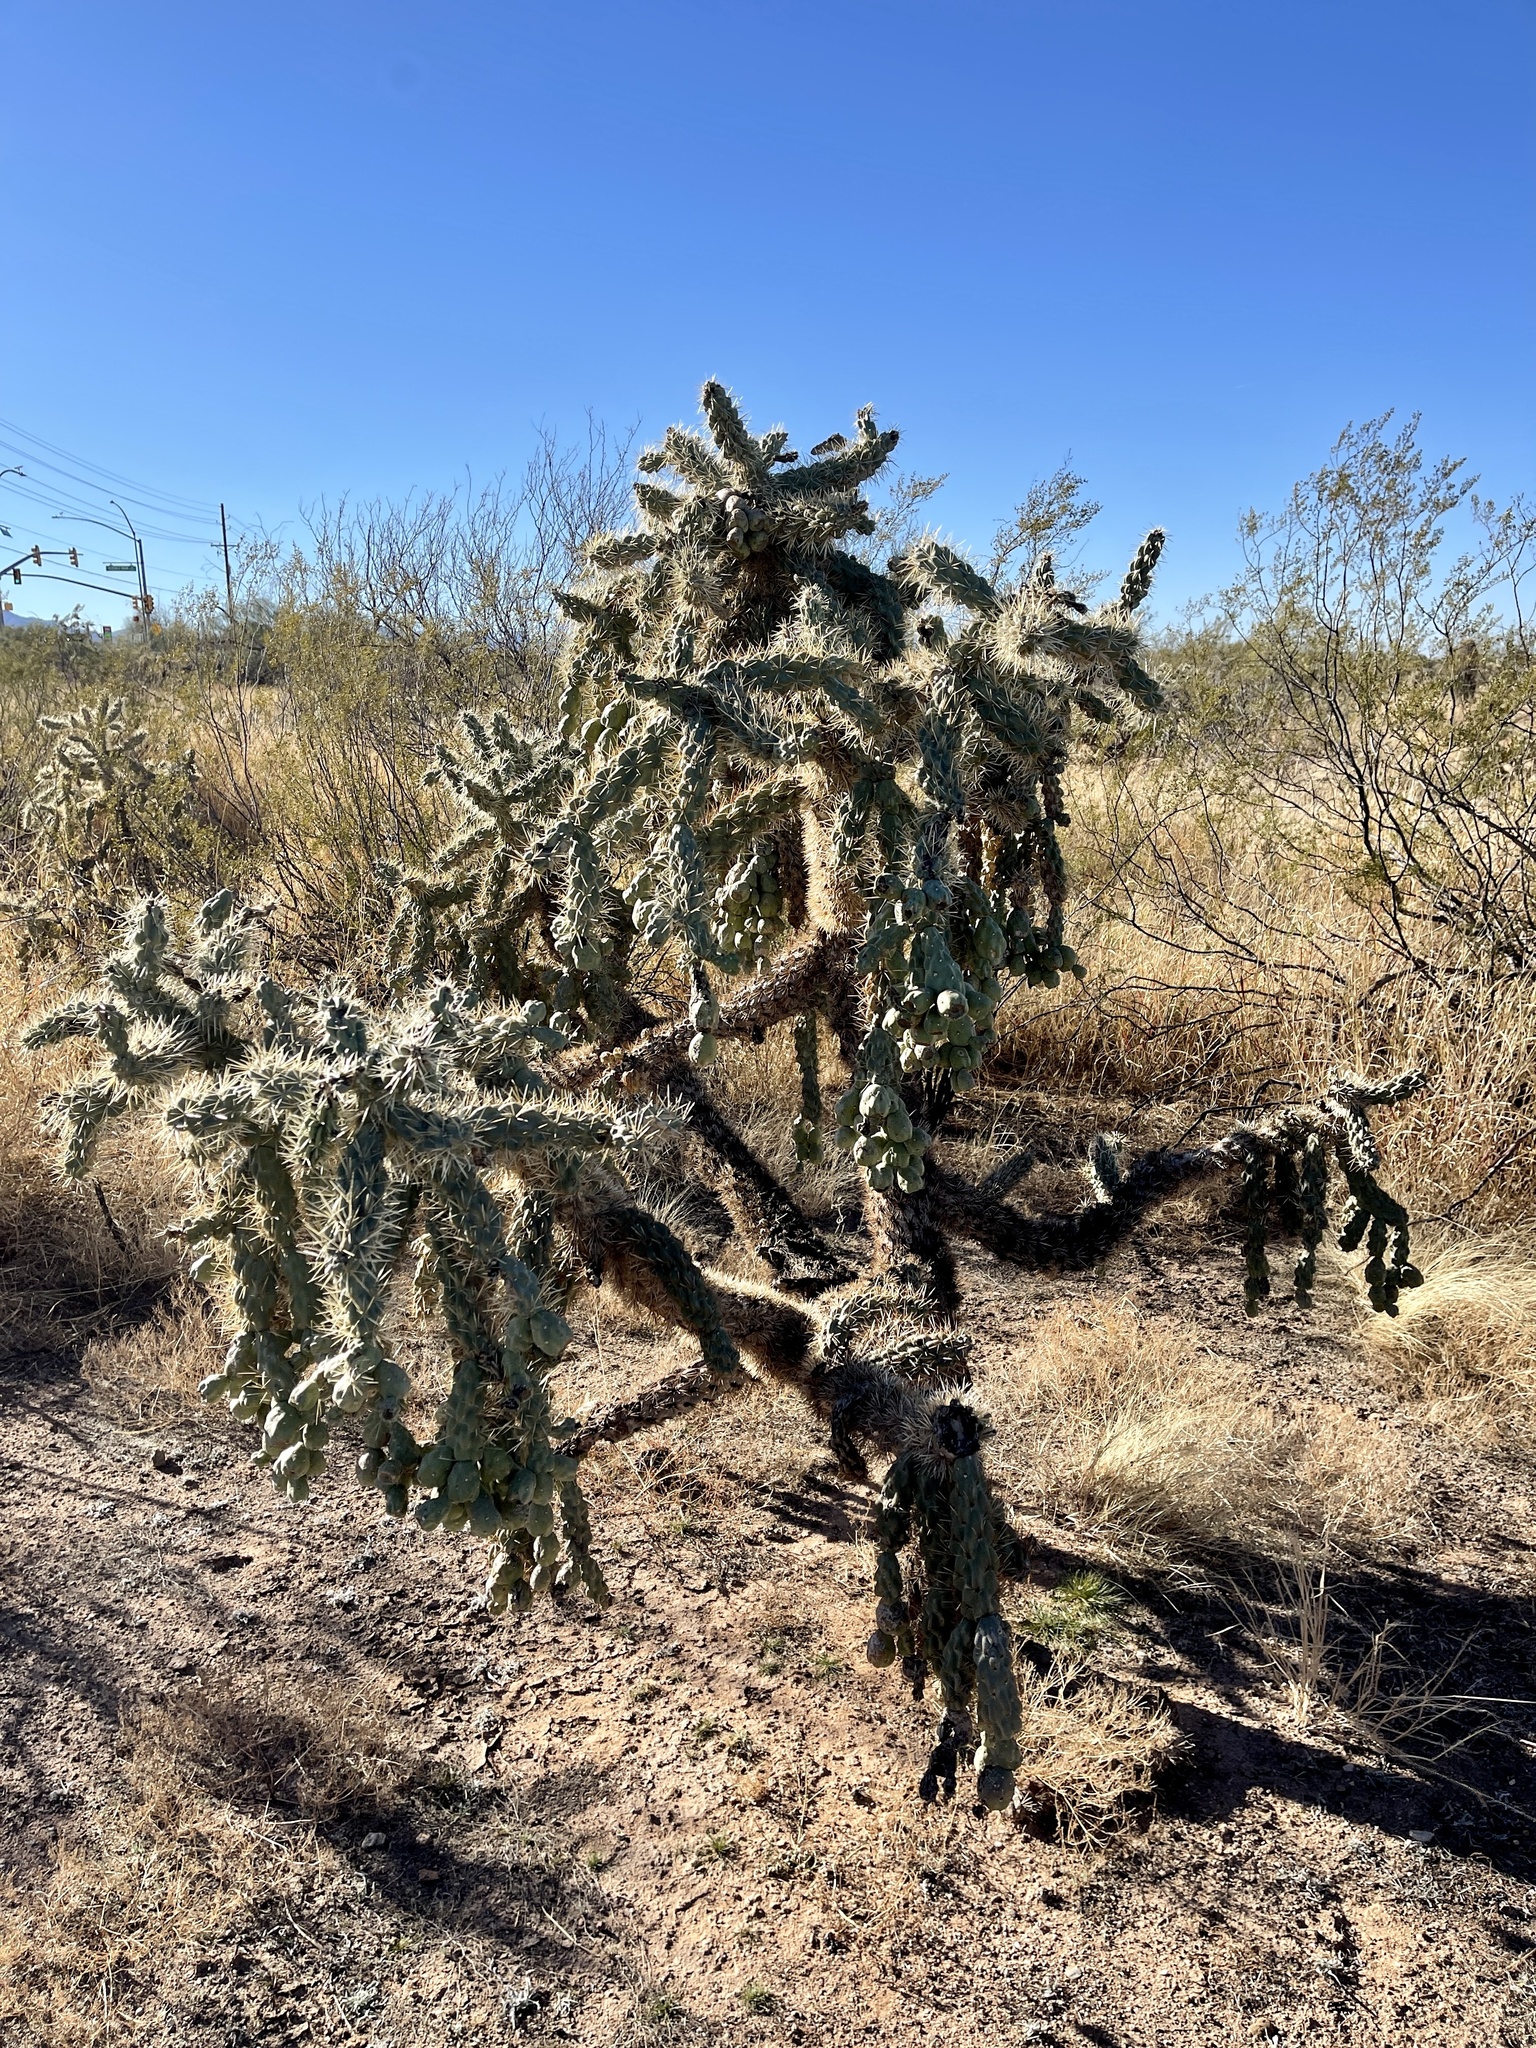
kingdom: Plantae
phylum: Tracheophyta
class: Magnoliopsida
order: Caryophyllales
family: Cactaceae
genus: Cylindropuntia
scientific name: Cylindropuntia fulgida
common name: Jumping cholla
